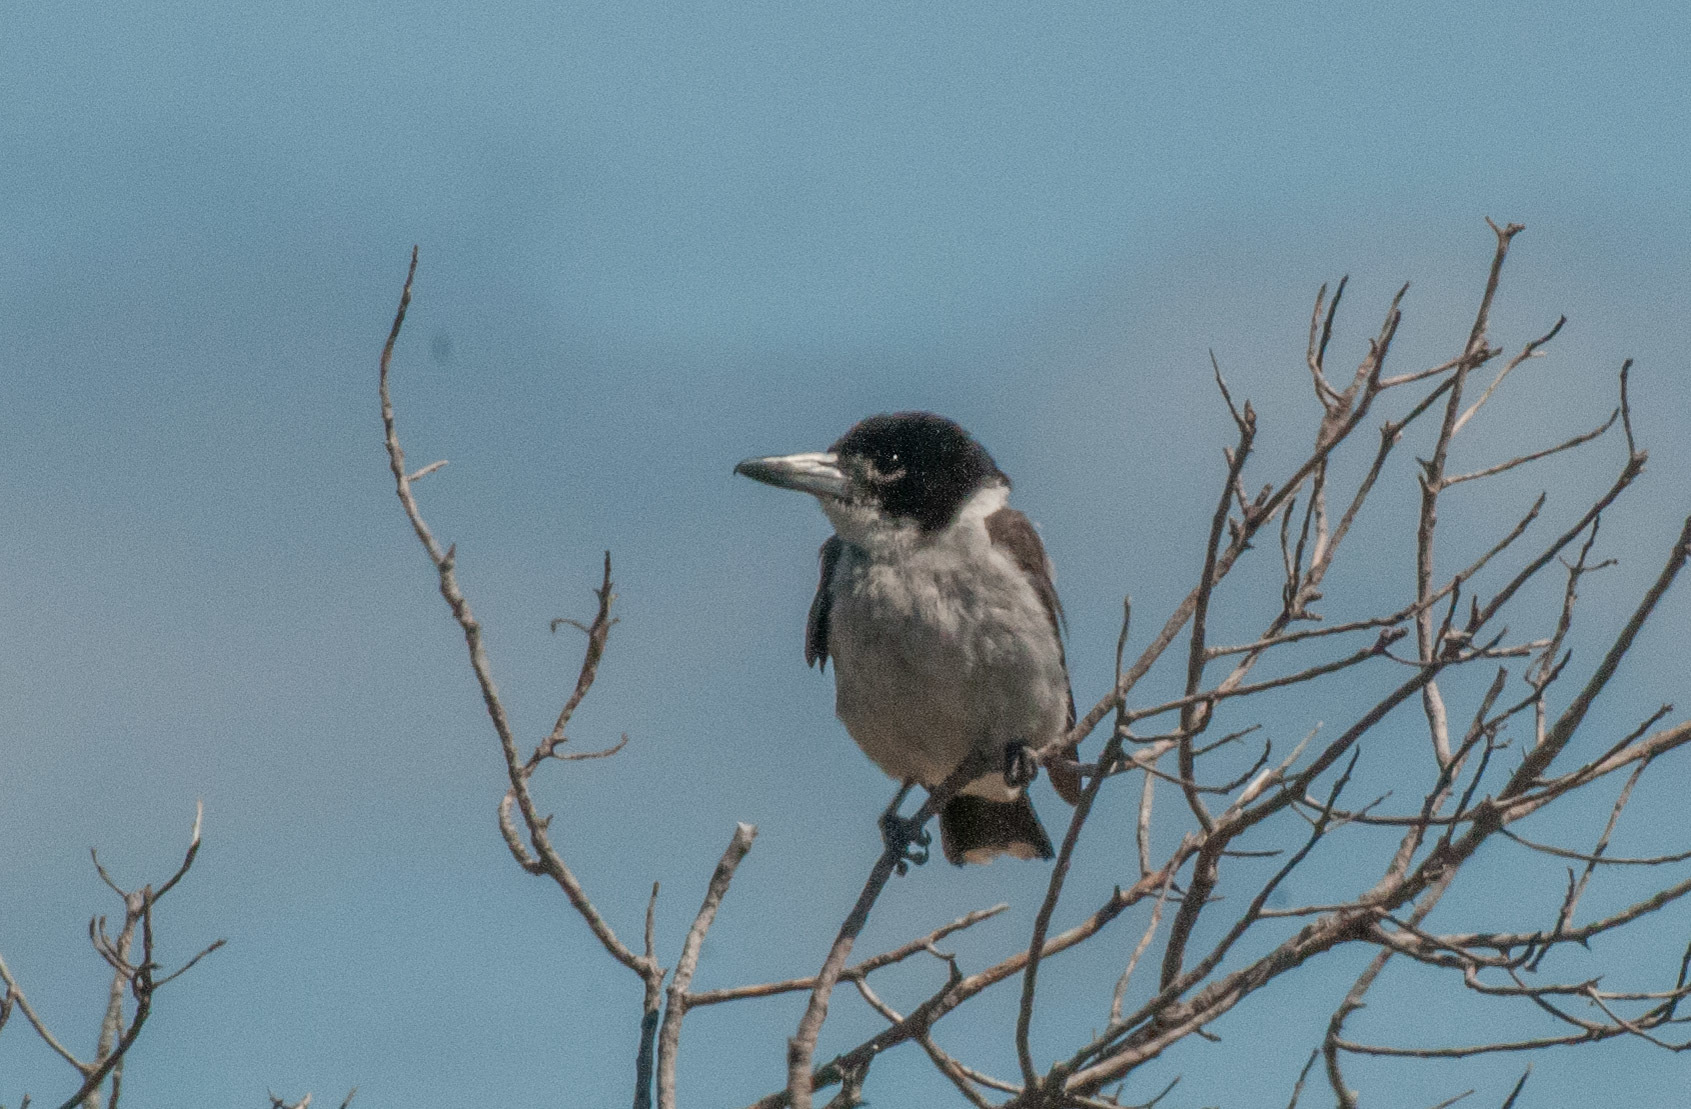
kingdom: Animalia
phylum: Chordata
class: Aves
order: Passeriformes
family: Cracticidae
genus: Cracticus
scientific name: Cracticus torquatus
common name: Grey butcherbird
